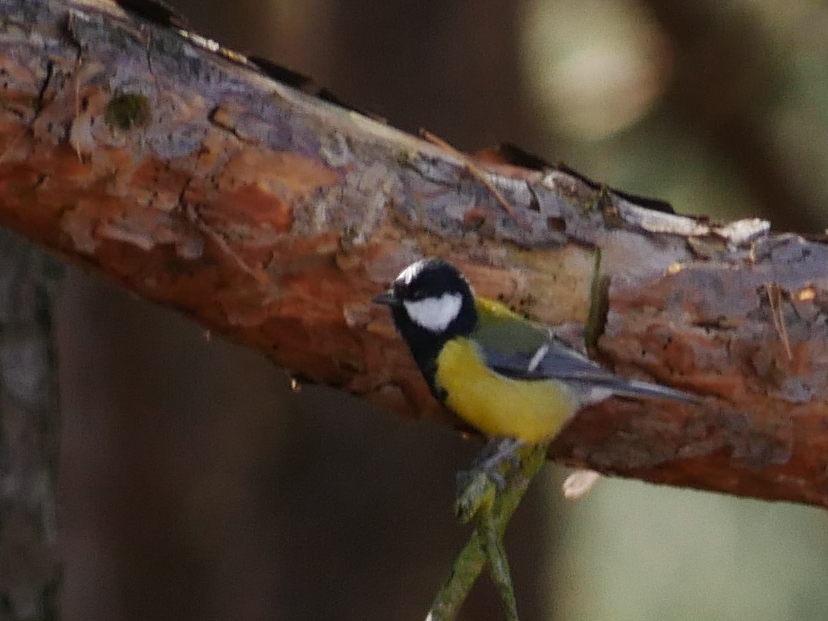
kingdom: Animalia
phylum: Chordata
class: Aves
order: Passeriformes
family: Paridae
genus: Parus
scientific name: Parus major
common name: Great tit
